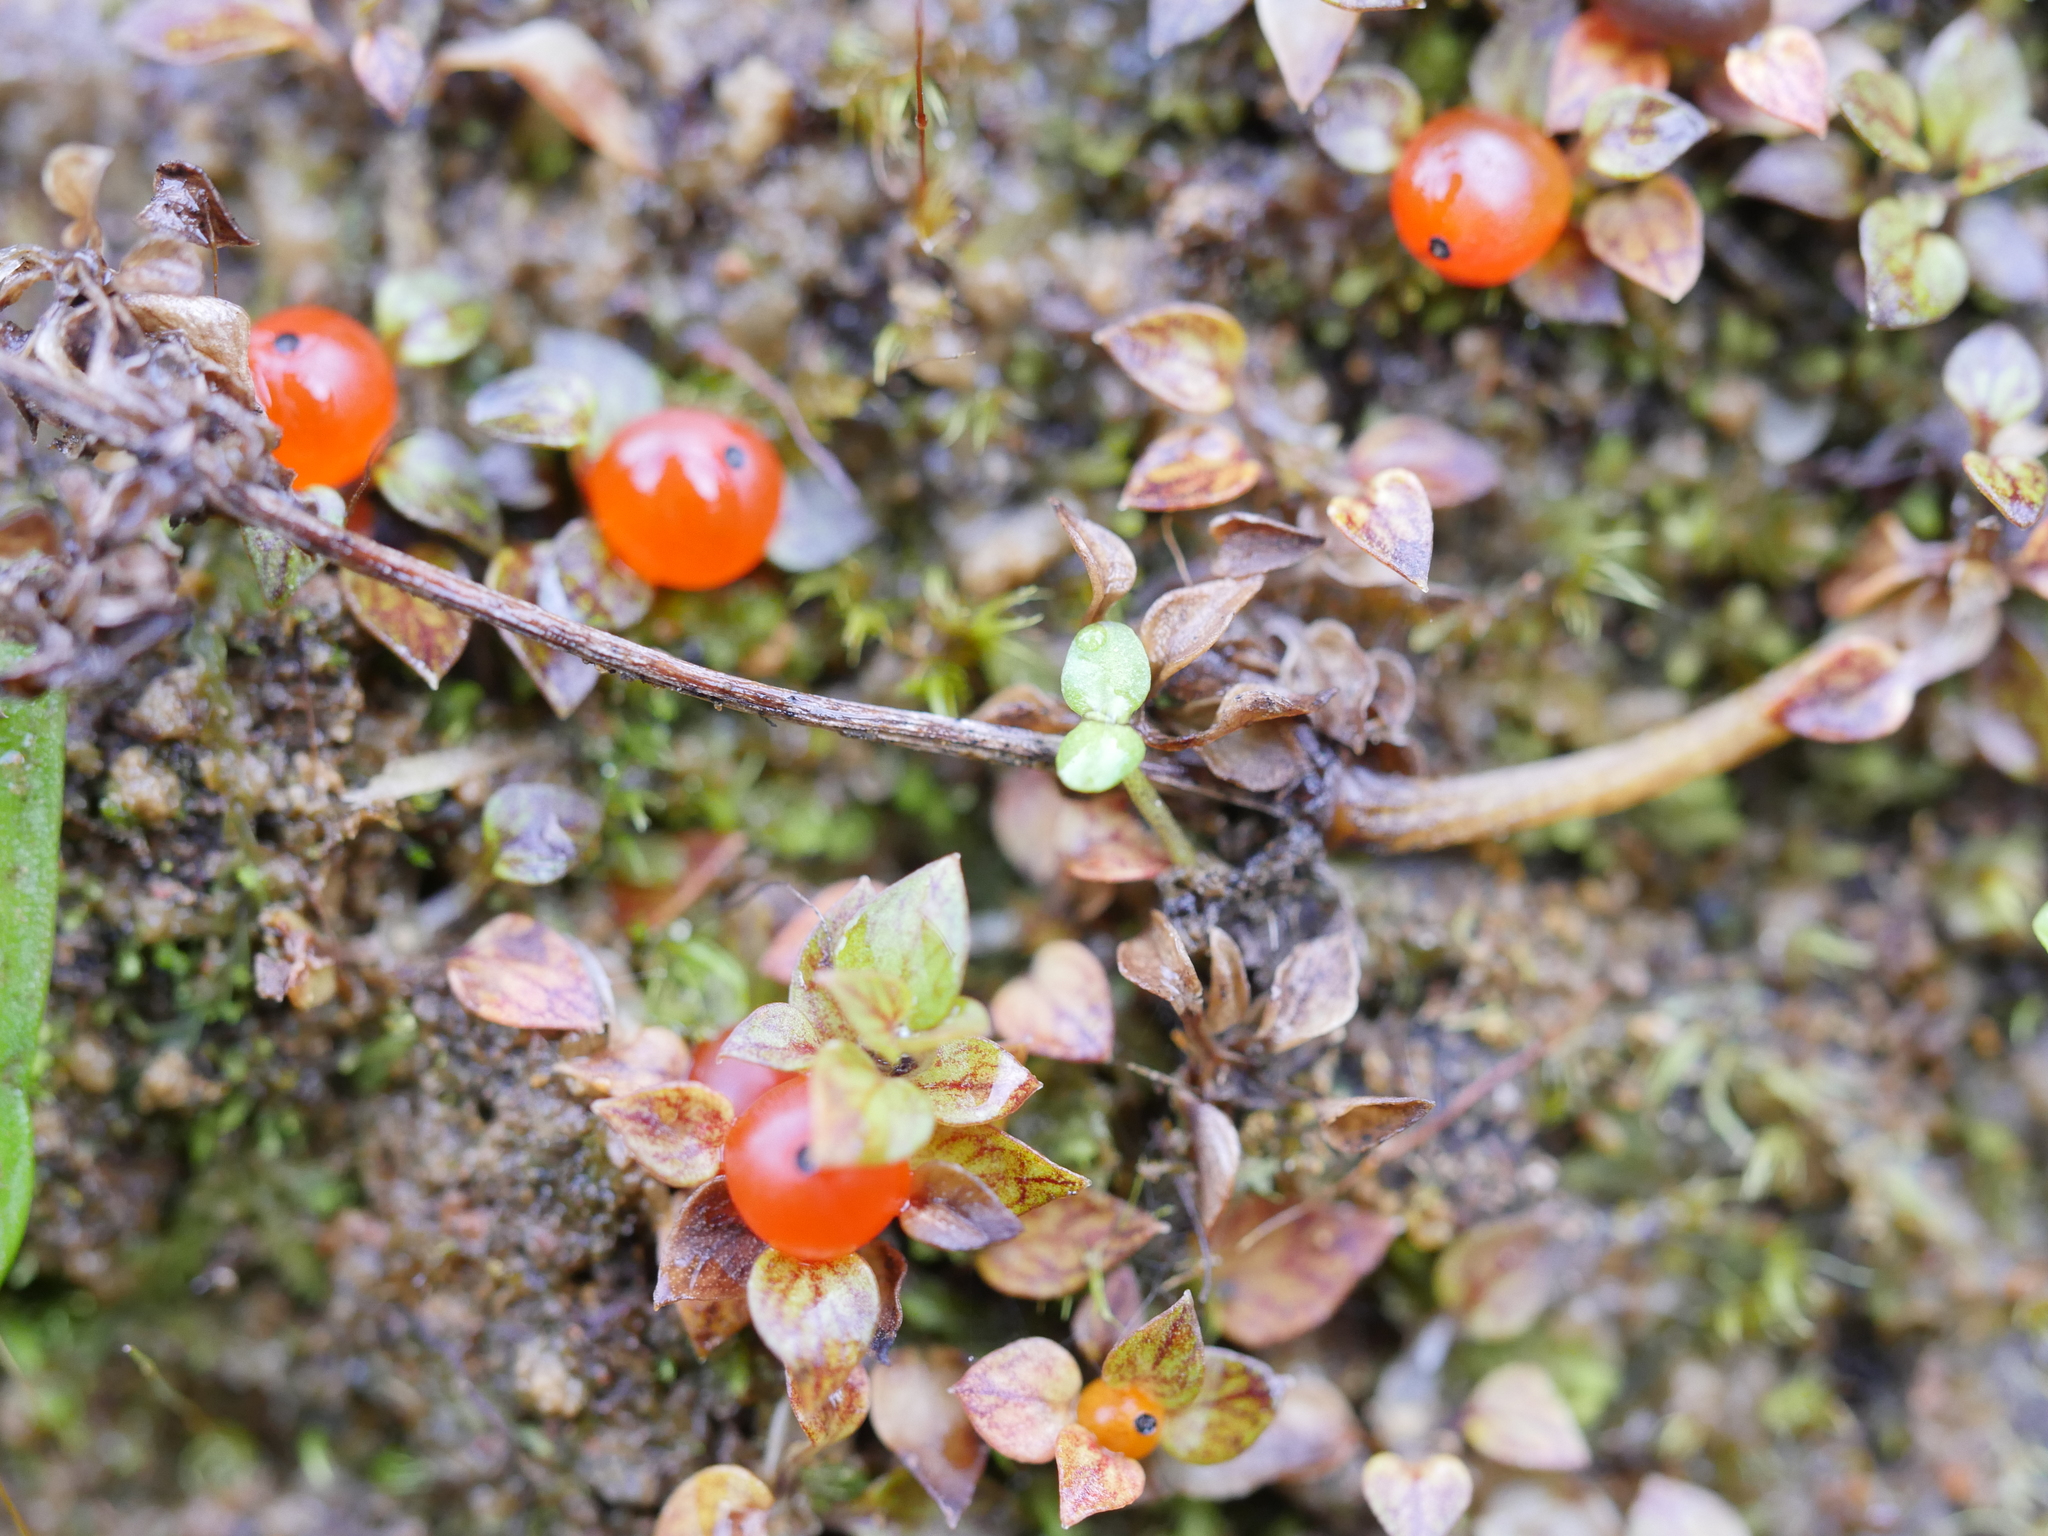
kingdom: Plantae
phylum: Tracheophyta
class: Magnoliopsida
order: Gentianales
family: Rubiaceae
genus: Nertera
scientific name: Nertera granadensis
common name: Beadplant
